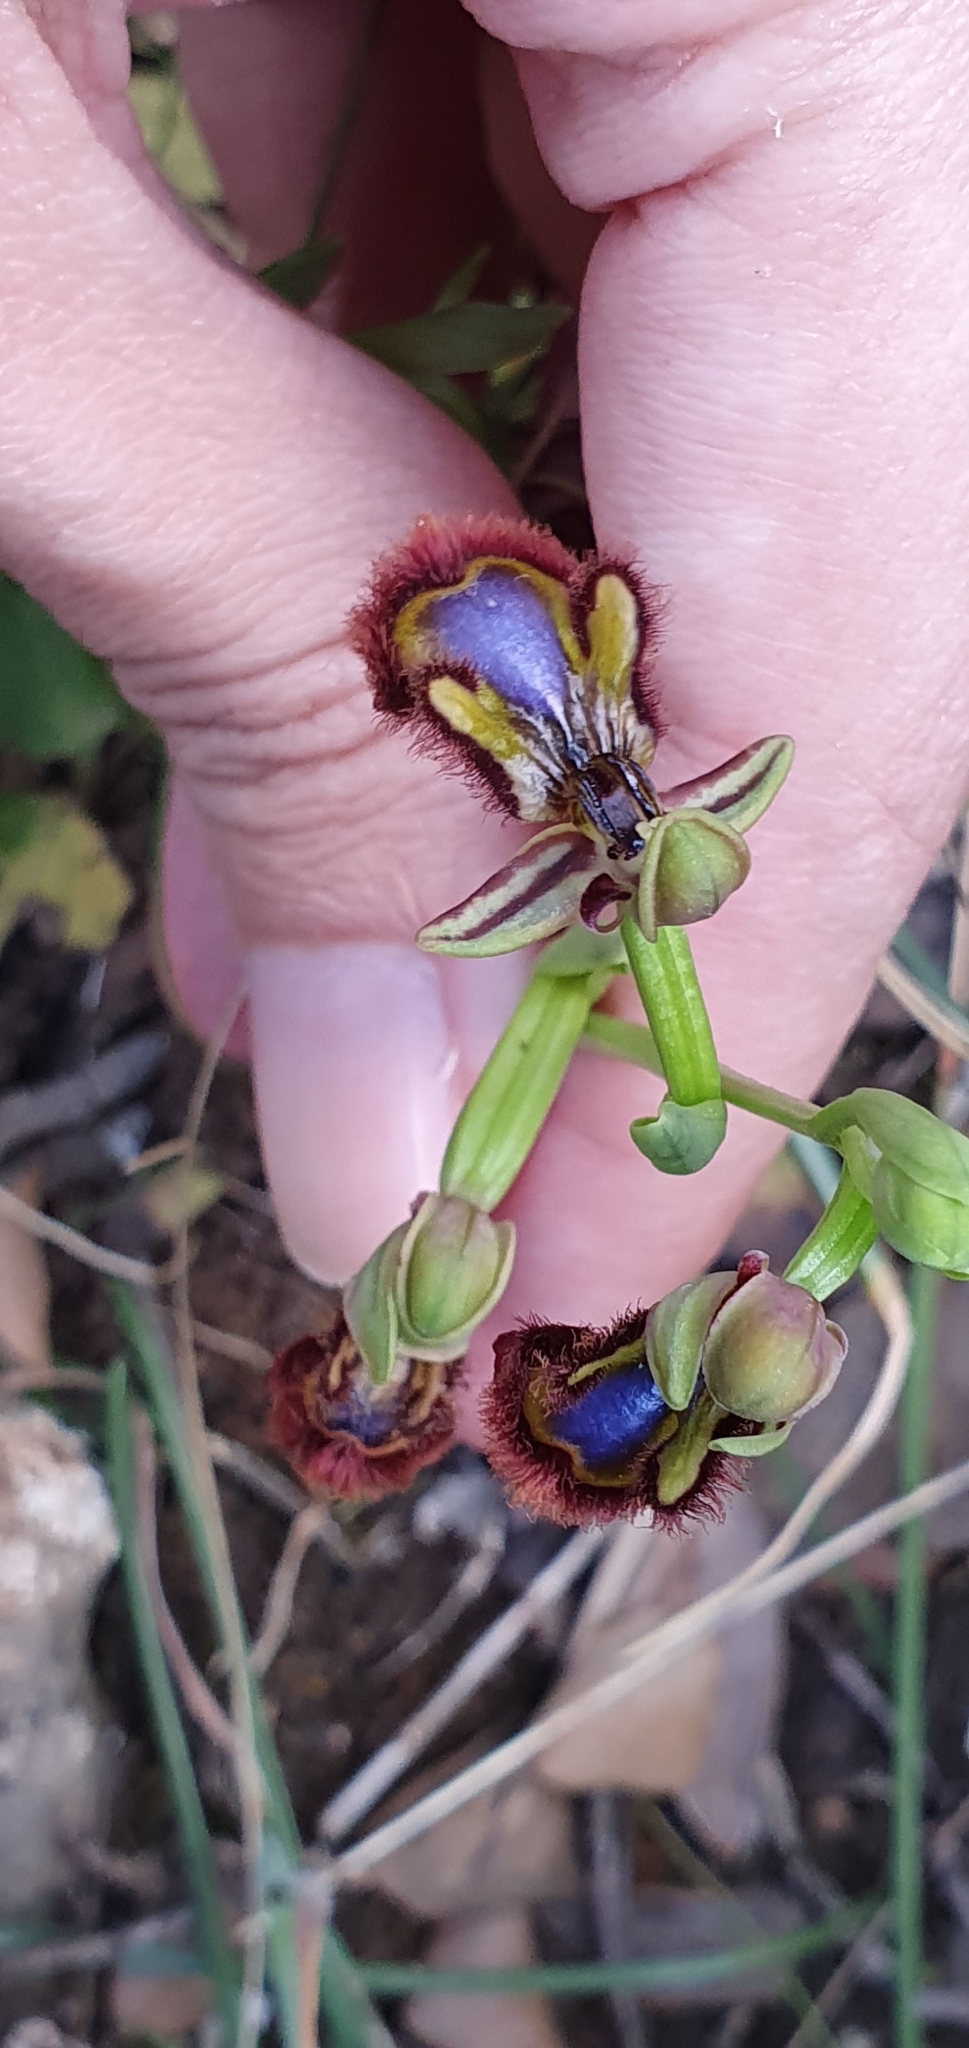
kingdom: Plantae
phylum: Tracheophyta
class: Liliopsida
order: Asparagales
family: Orchidaceae
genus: Ophrys
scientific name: Ophrys speculum
